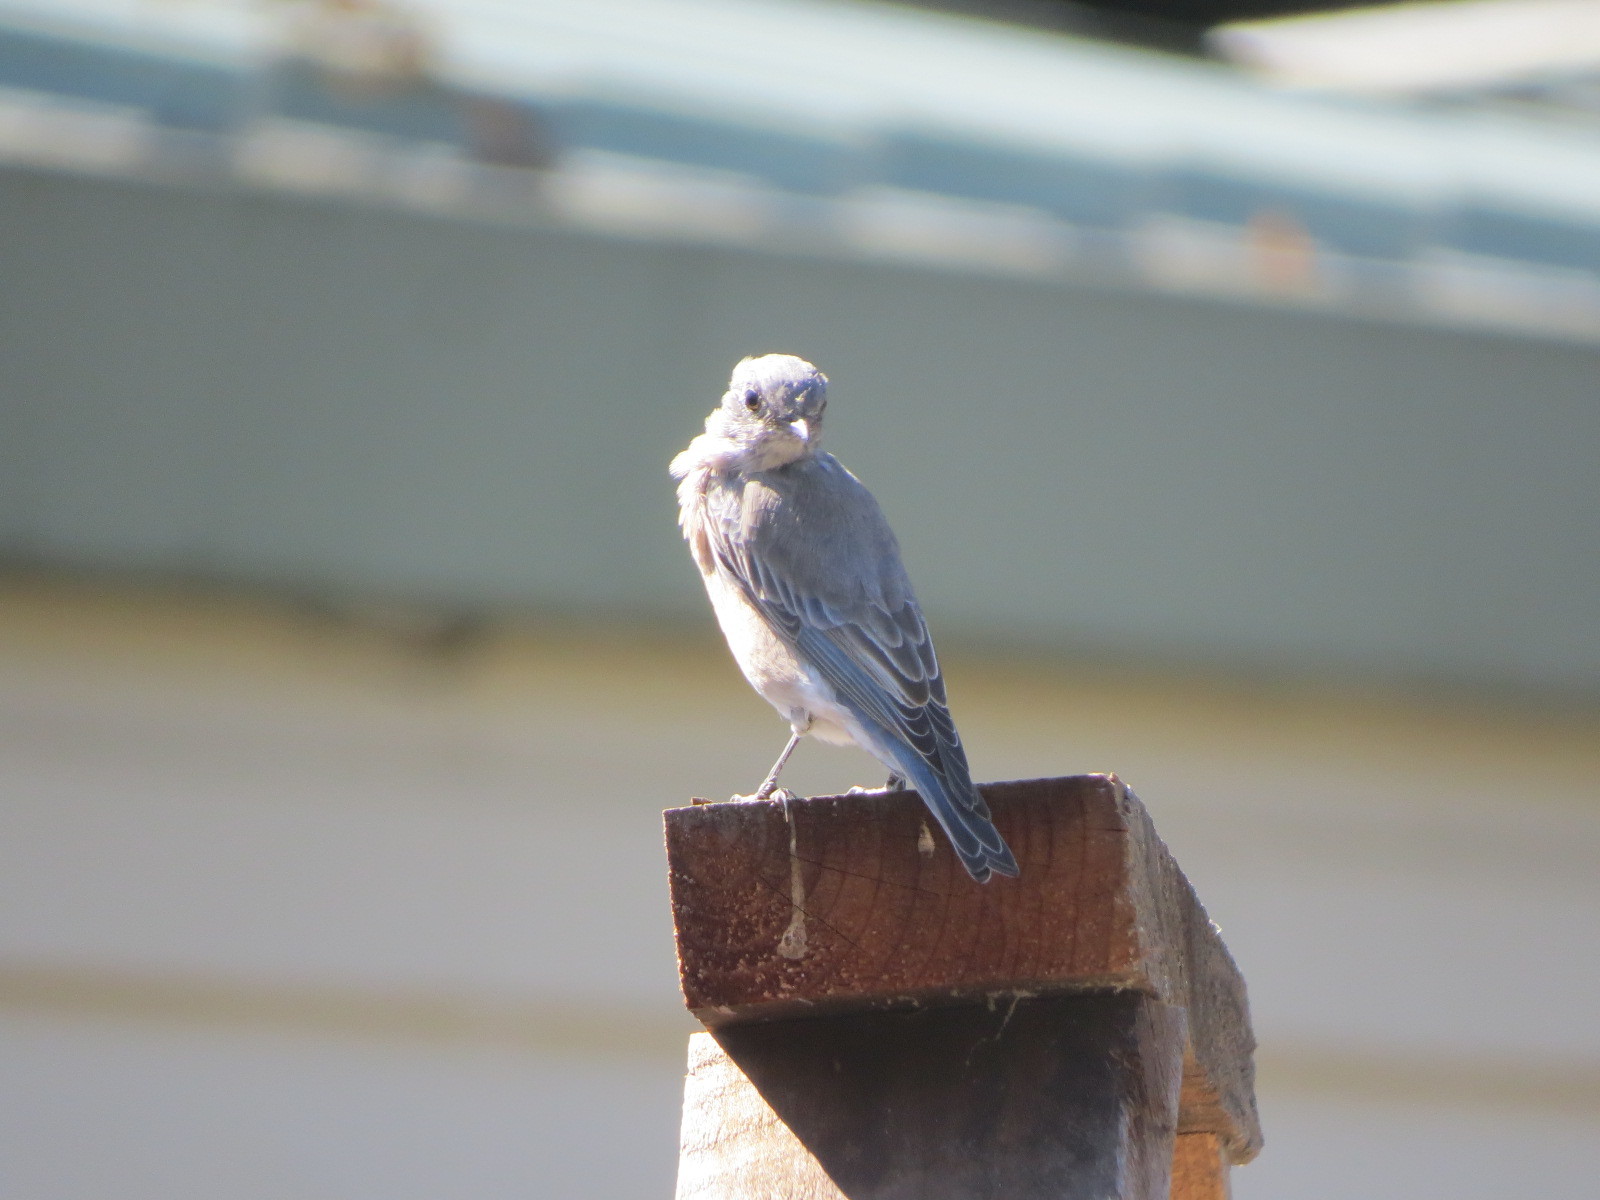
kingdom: Animalia
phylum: Chordata
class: Aves
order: Passeriformes
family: Turdidae
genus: Sialia
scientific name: Sialia mexicana
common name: Western bluebird
